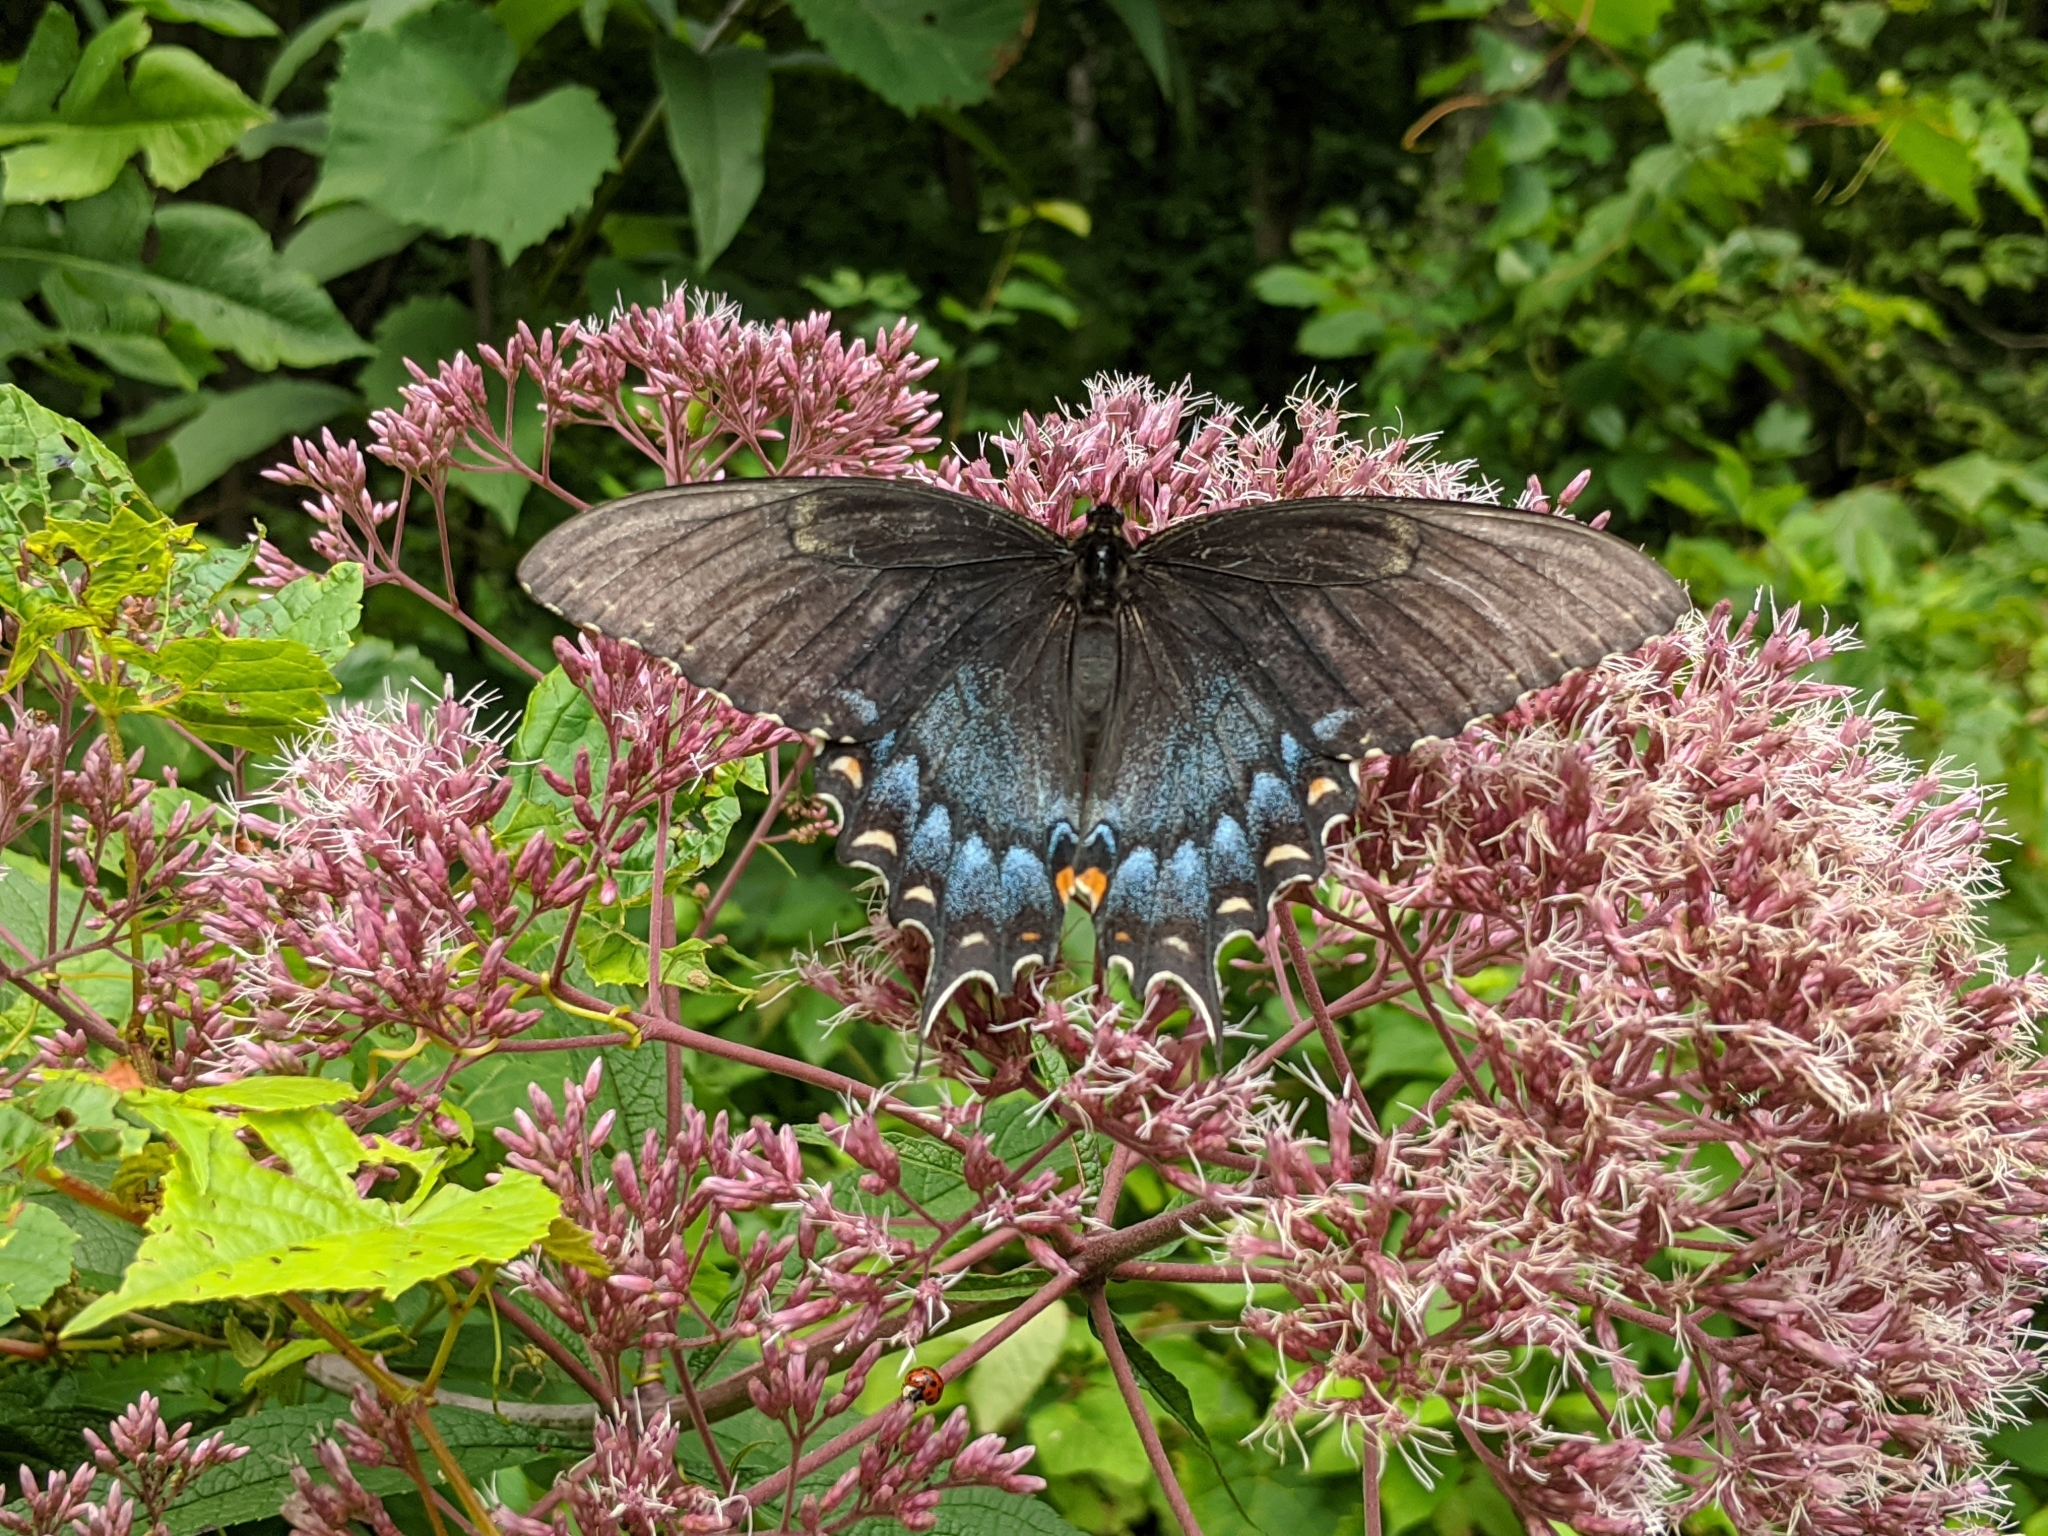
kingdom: Animalia
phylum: Arthropoda
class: Insecta
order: Lepidoptera
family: Papilionidae
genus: Papilio
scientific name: Papilio glaucus
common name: Tiger swallowtail
